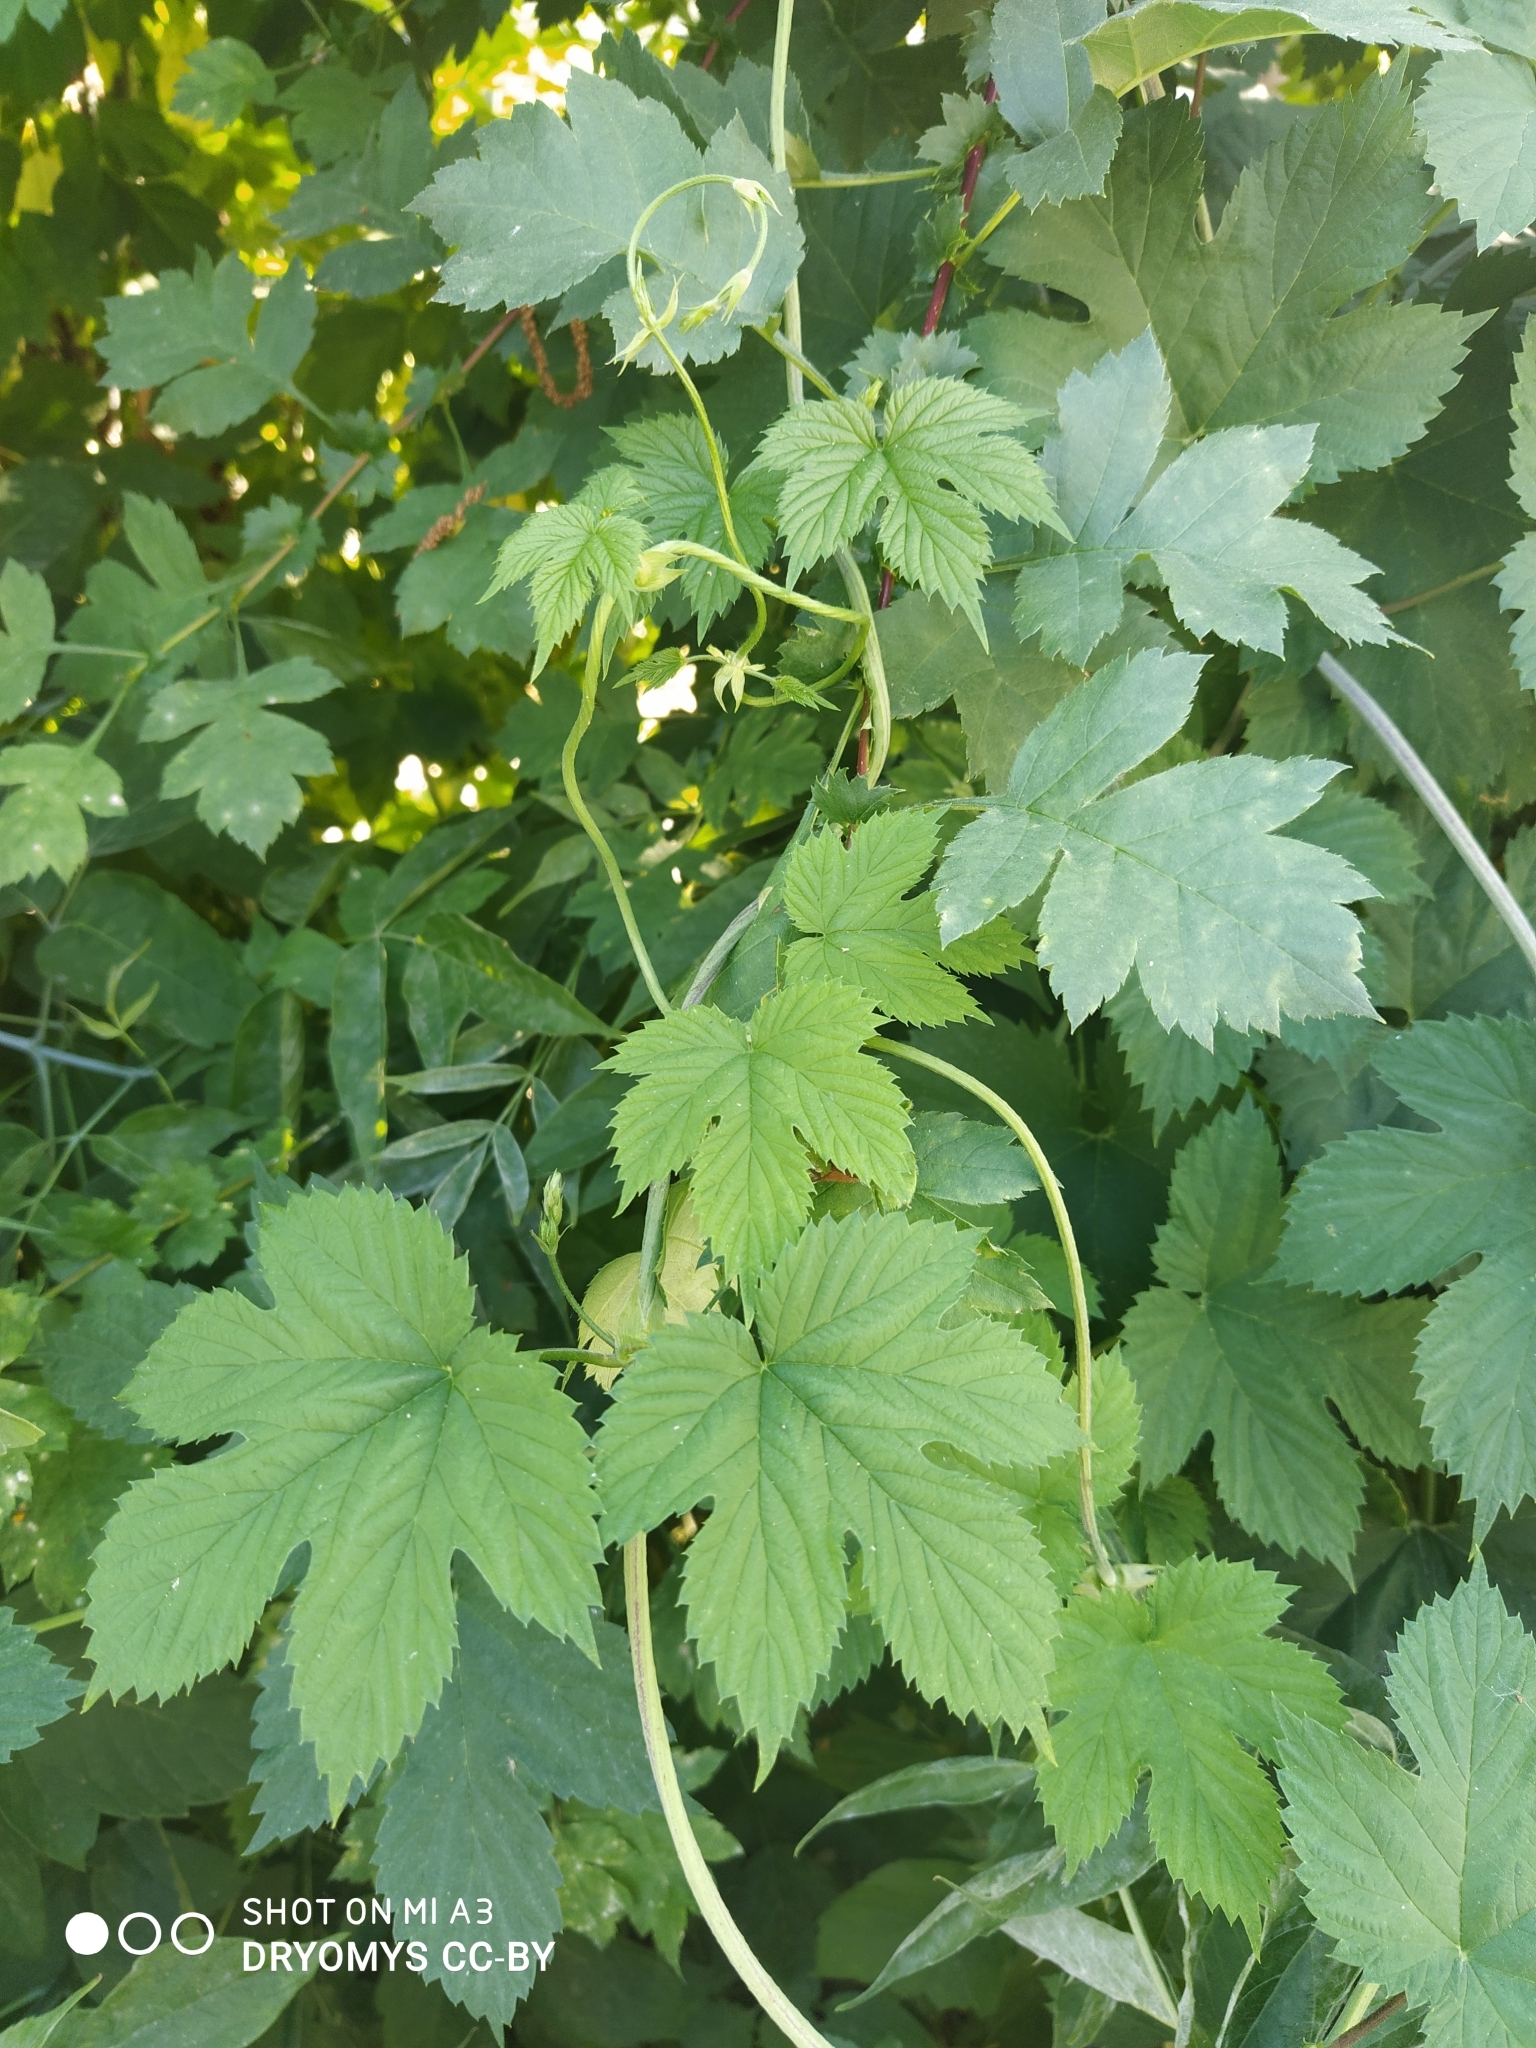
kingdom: Plantae
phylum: Tracheophyta
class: Magnoliopsida
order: Rosales
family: Cannabaceae
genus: Humulus
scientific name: Humulus lupulus
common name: Hop
